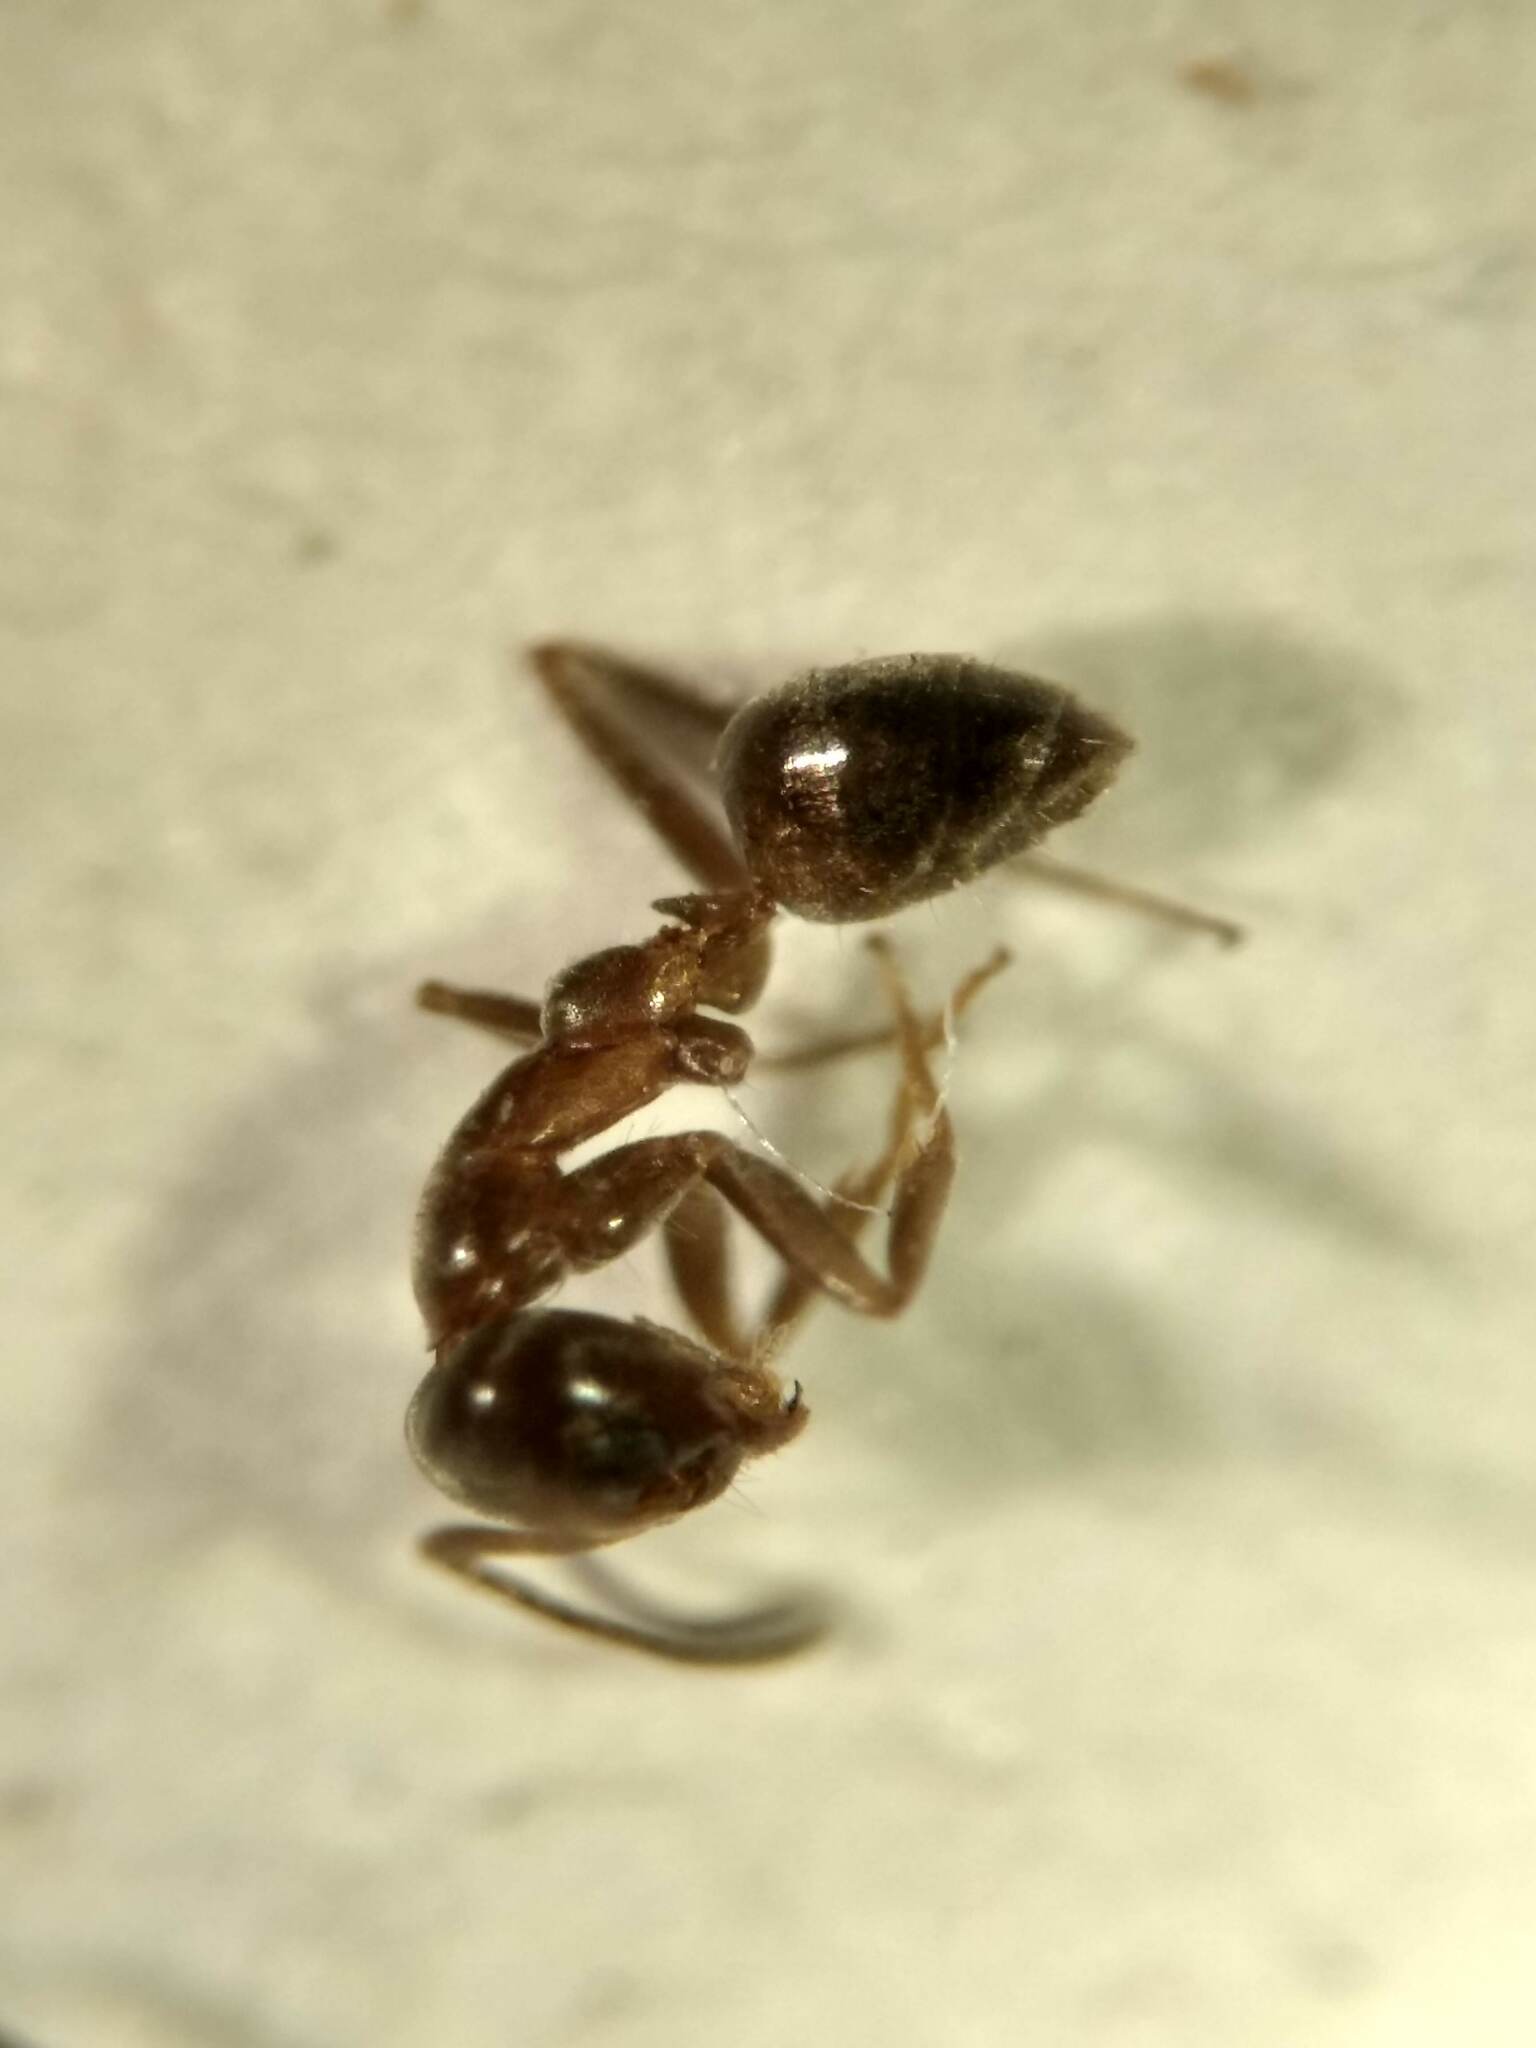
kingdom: Animalia
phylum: Arthropoda
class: Insecta
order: Hymenoptera
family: Formicidae
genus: Linepithema
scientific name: Linepithema humile
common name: Argentine ant
